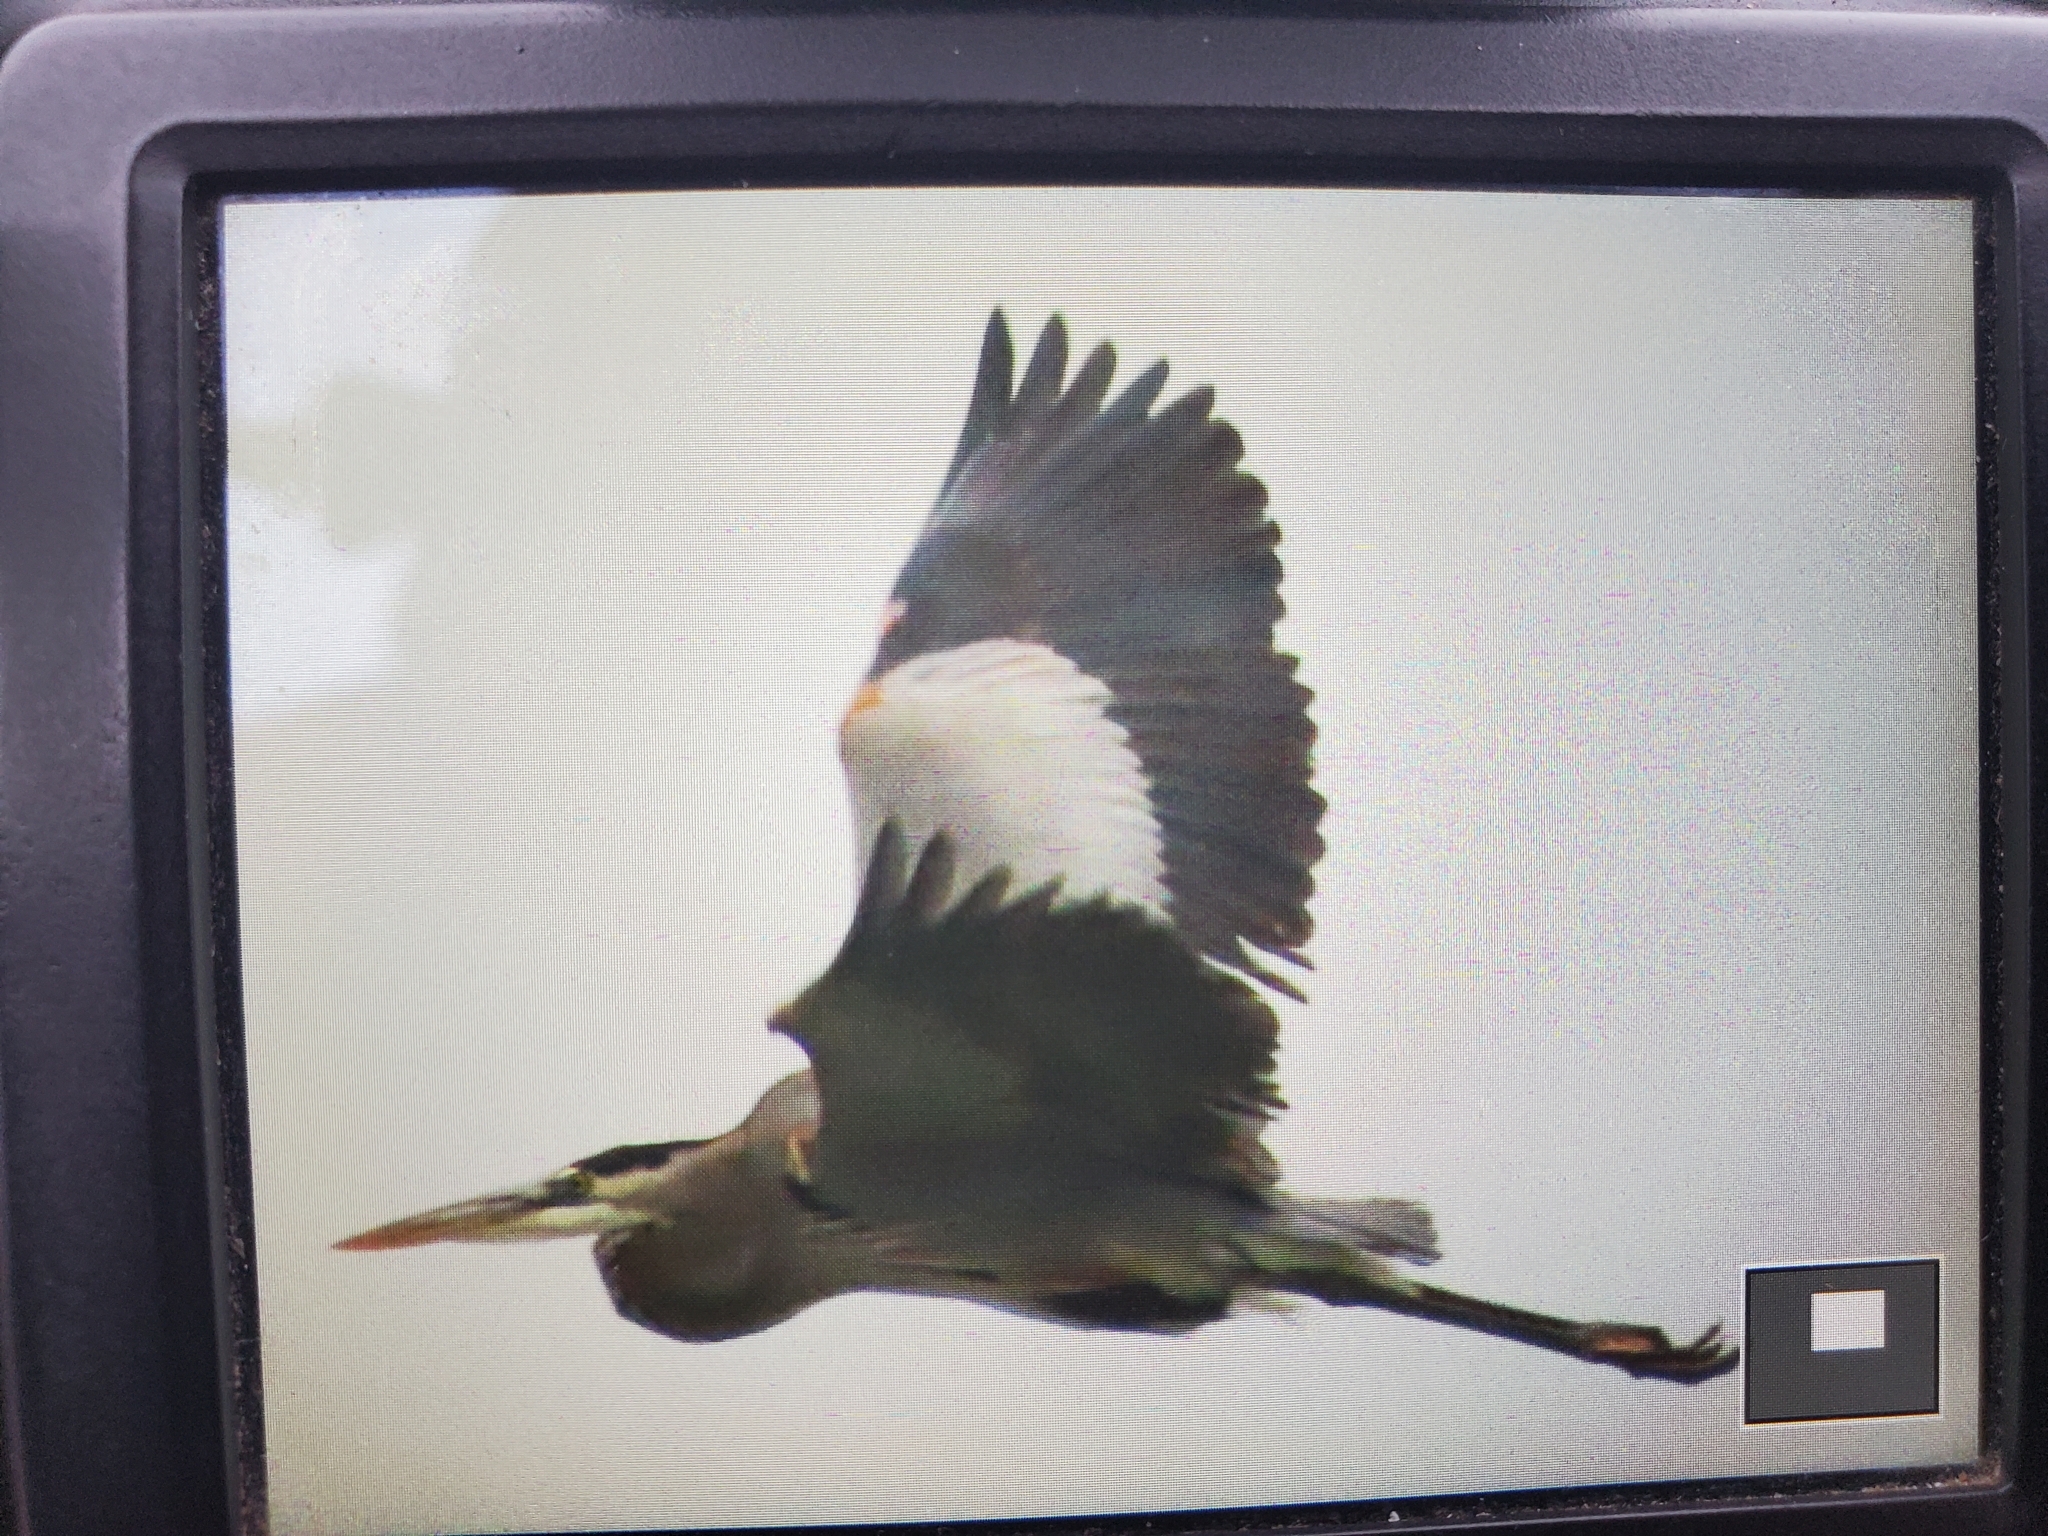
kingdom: Animalia
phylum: Chordata
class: Aves
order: Pelecaniformes
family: Ardeidae
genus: Ardea
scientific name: Ardea herodias
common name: Great blue heron
